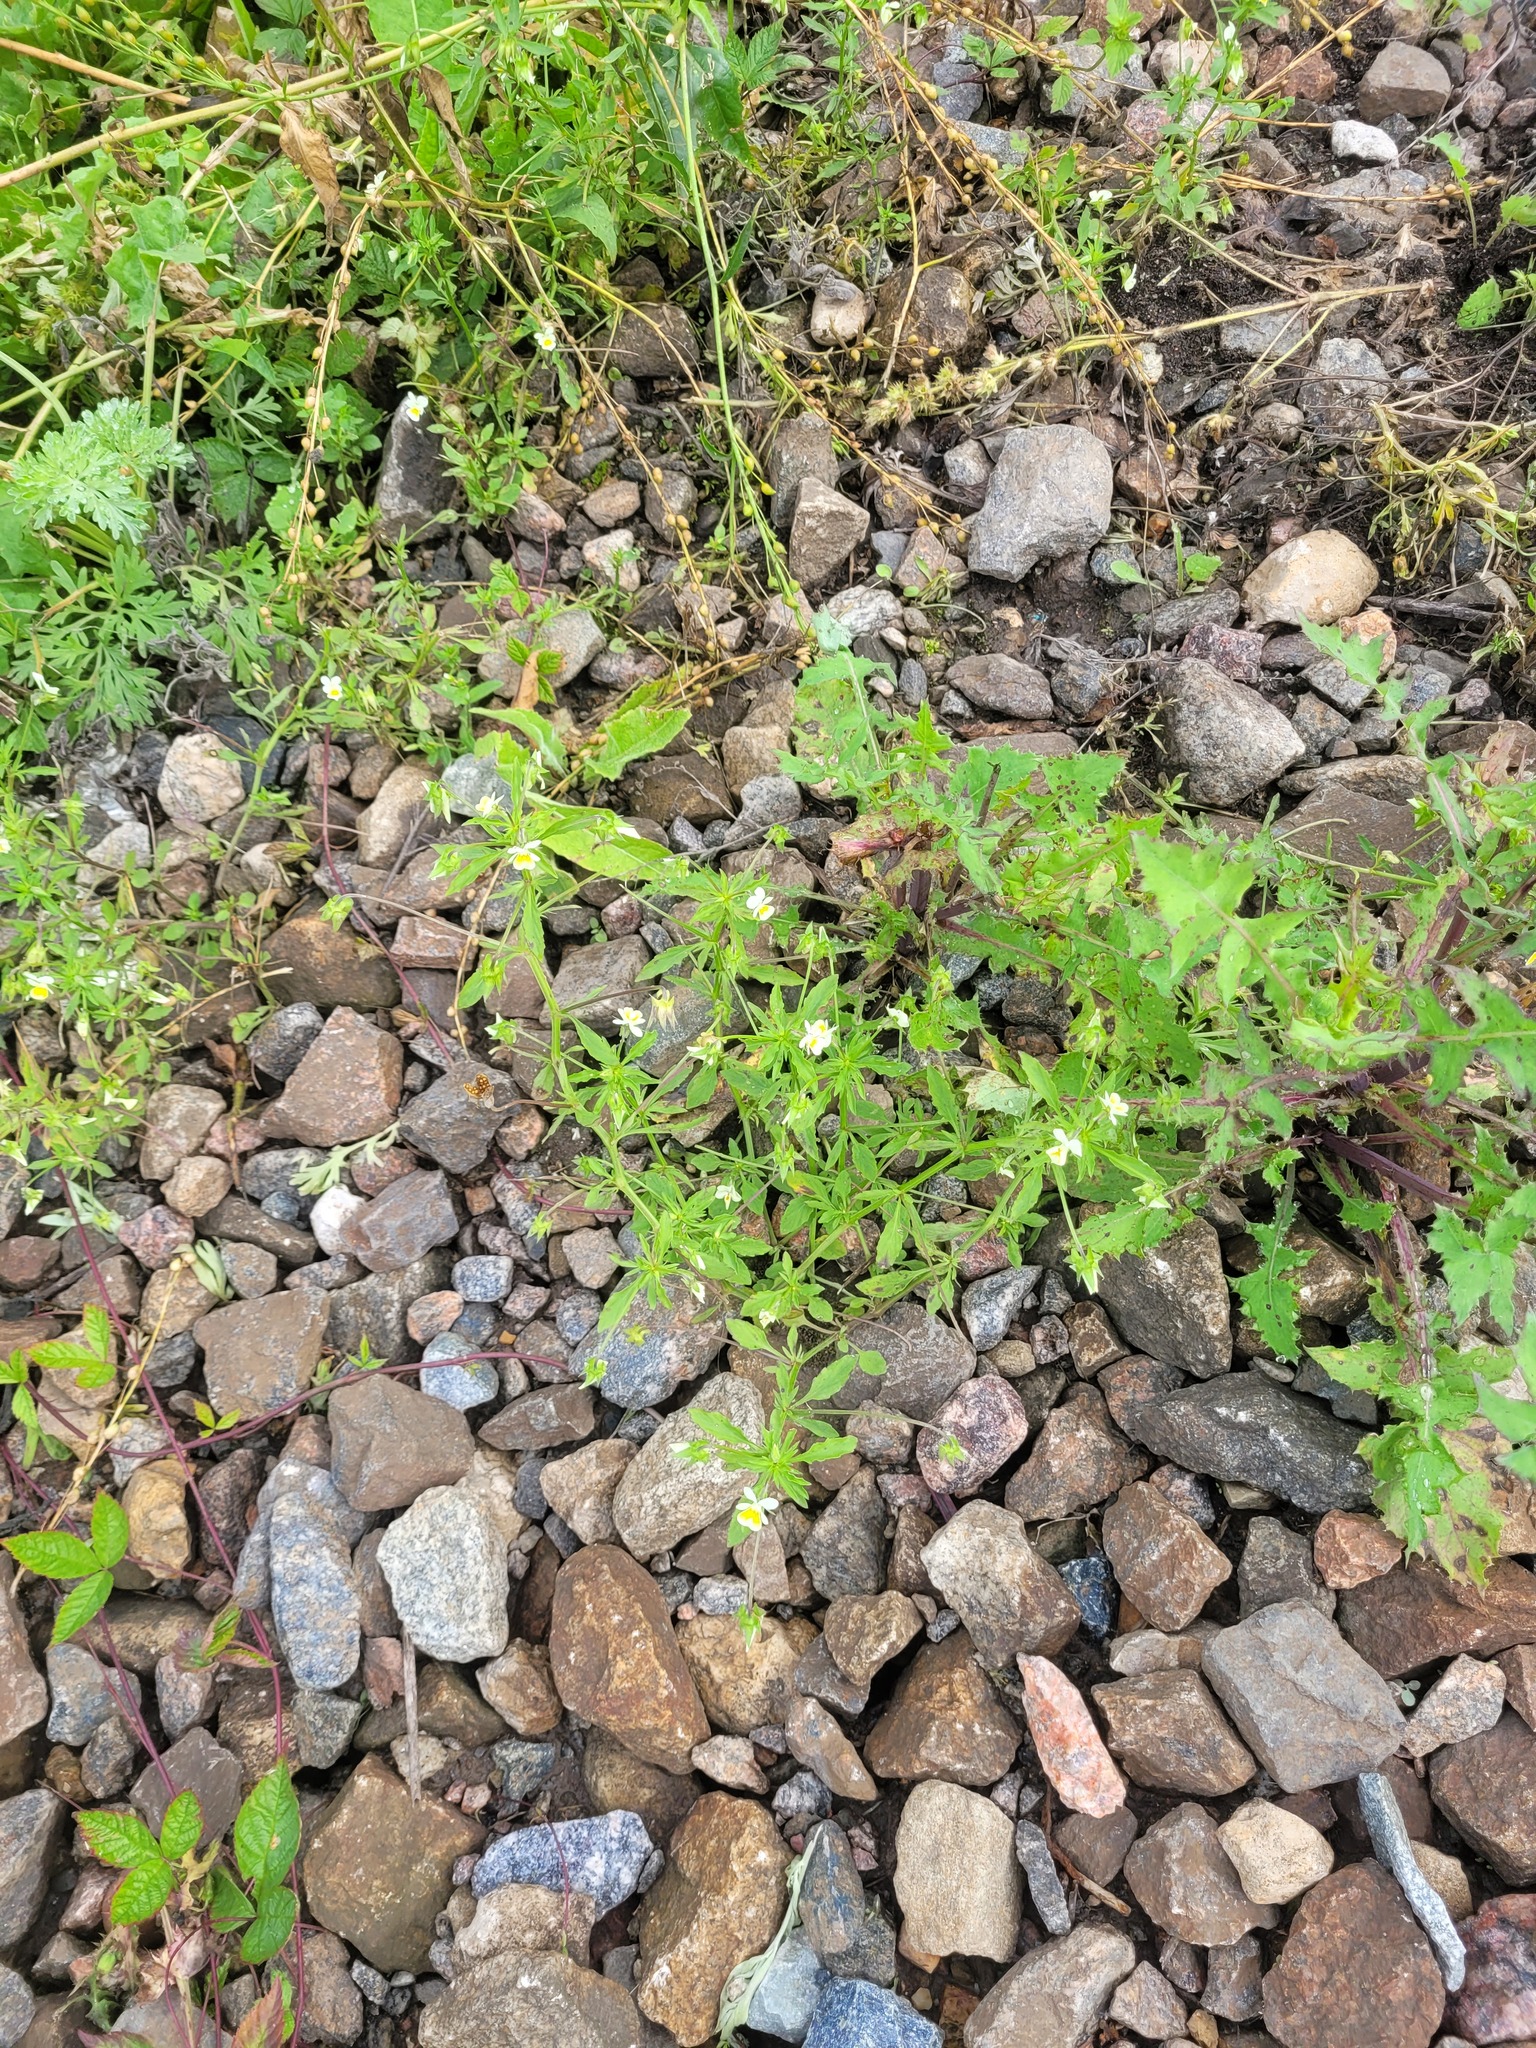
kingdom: Plantae
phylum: Tracheophyta
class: Magnoliopsida
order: Malpighiales
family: Violaceae
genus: Viola
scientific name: Viola arvensis
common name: Field pansy
